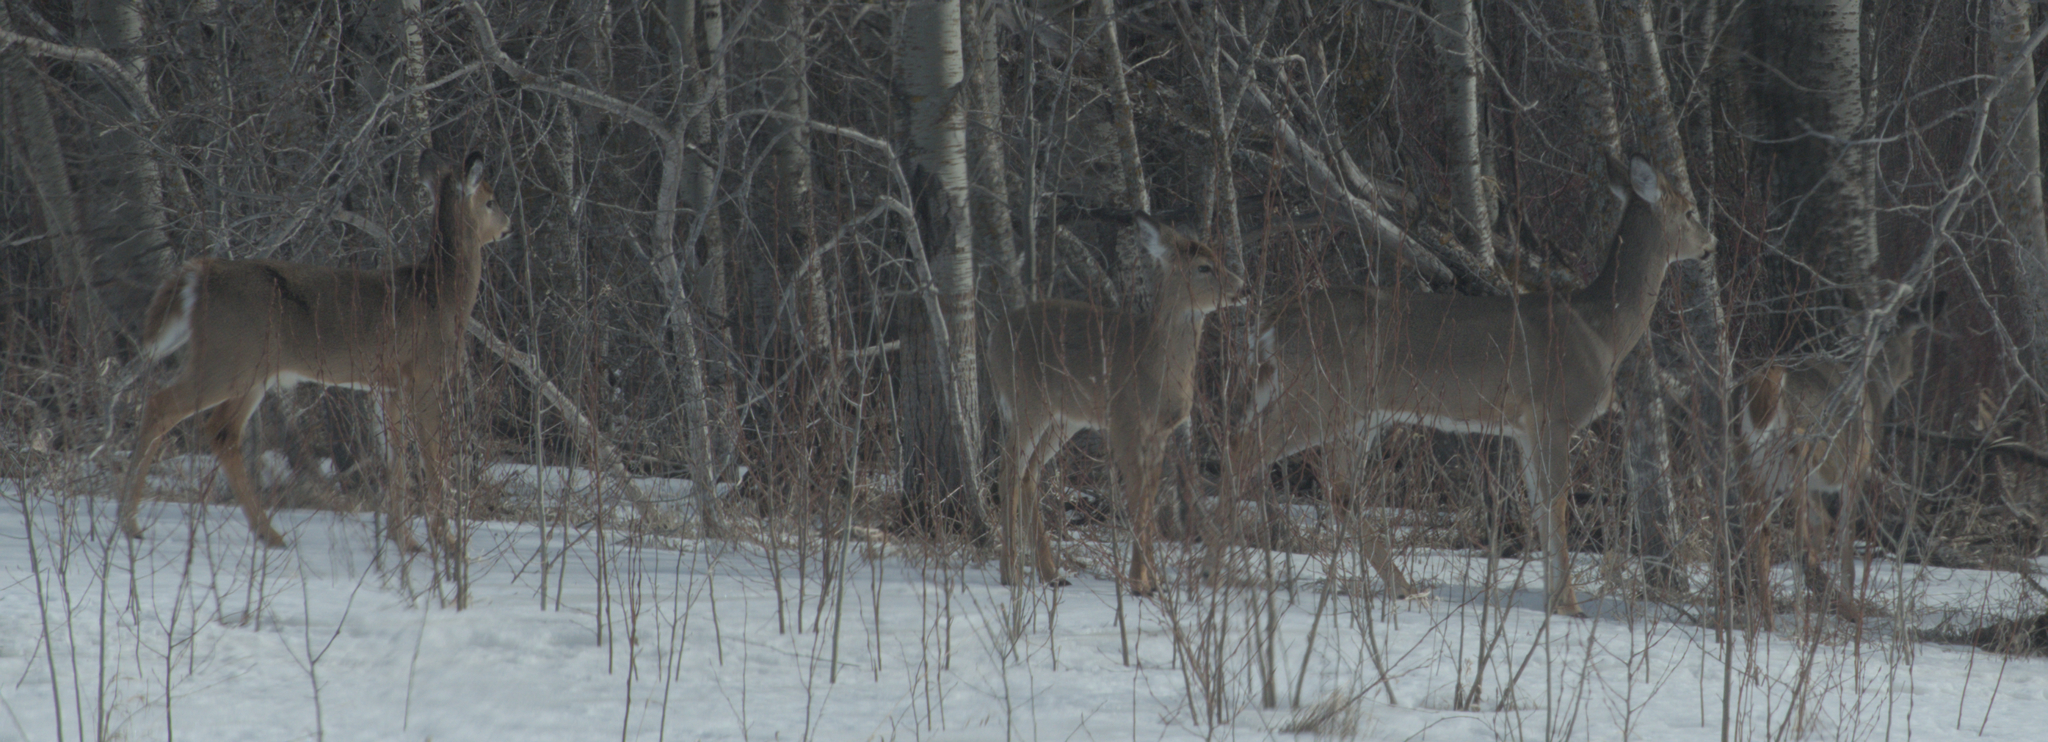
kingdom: Animalia
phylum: Chordata
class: Mammalia
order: Artiodactyla
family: Cervidae
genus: Odocoileus
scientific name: Odocoileus virginianus
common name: White-tailed deer
